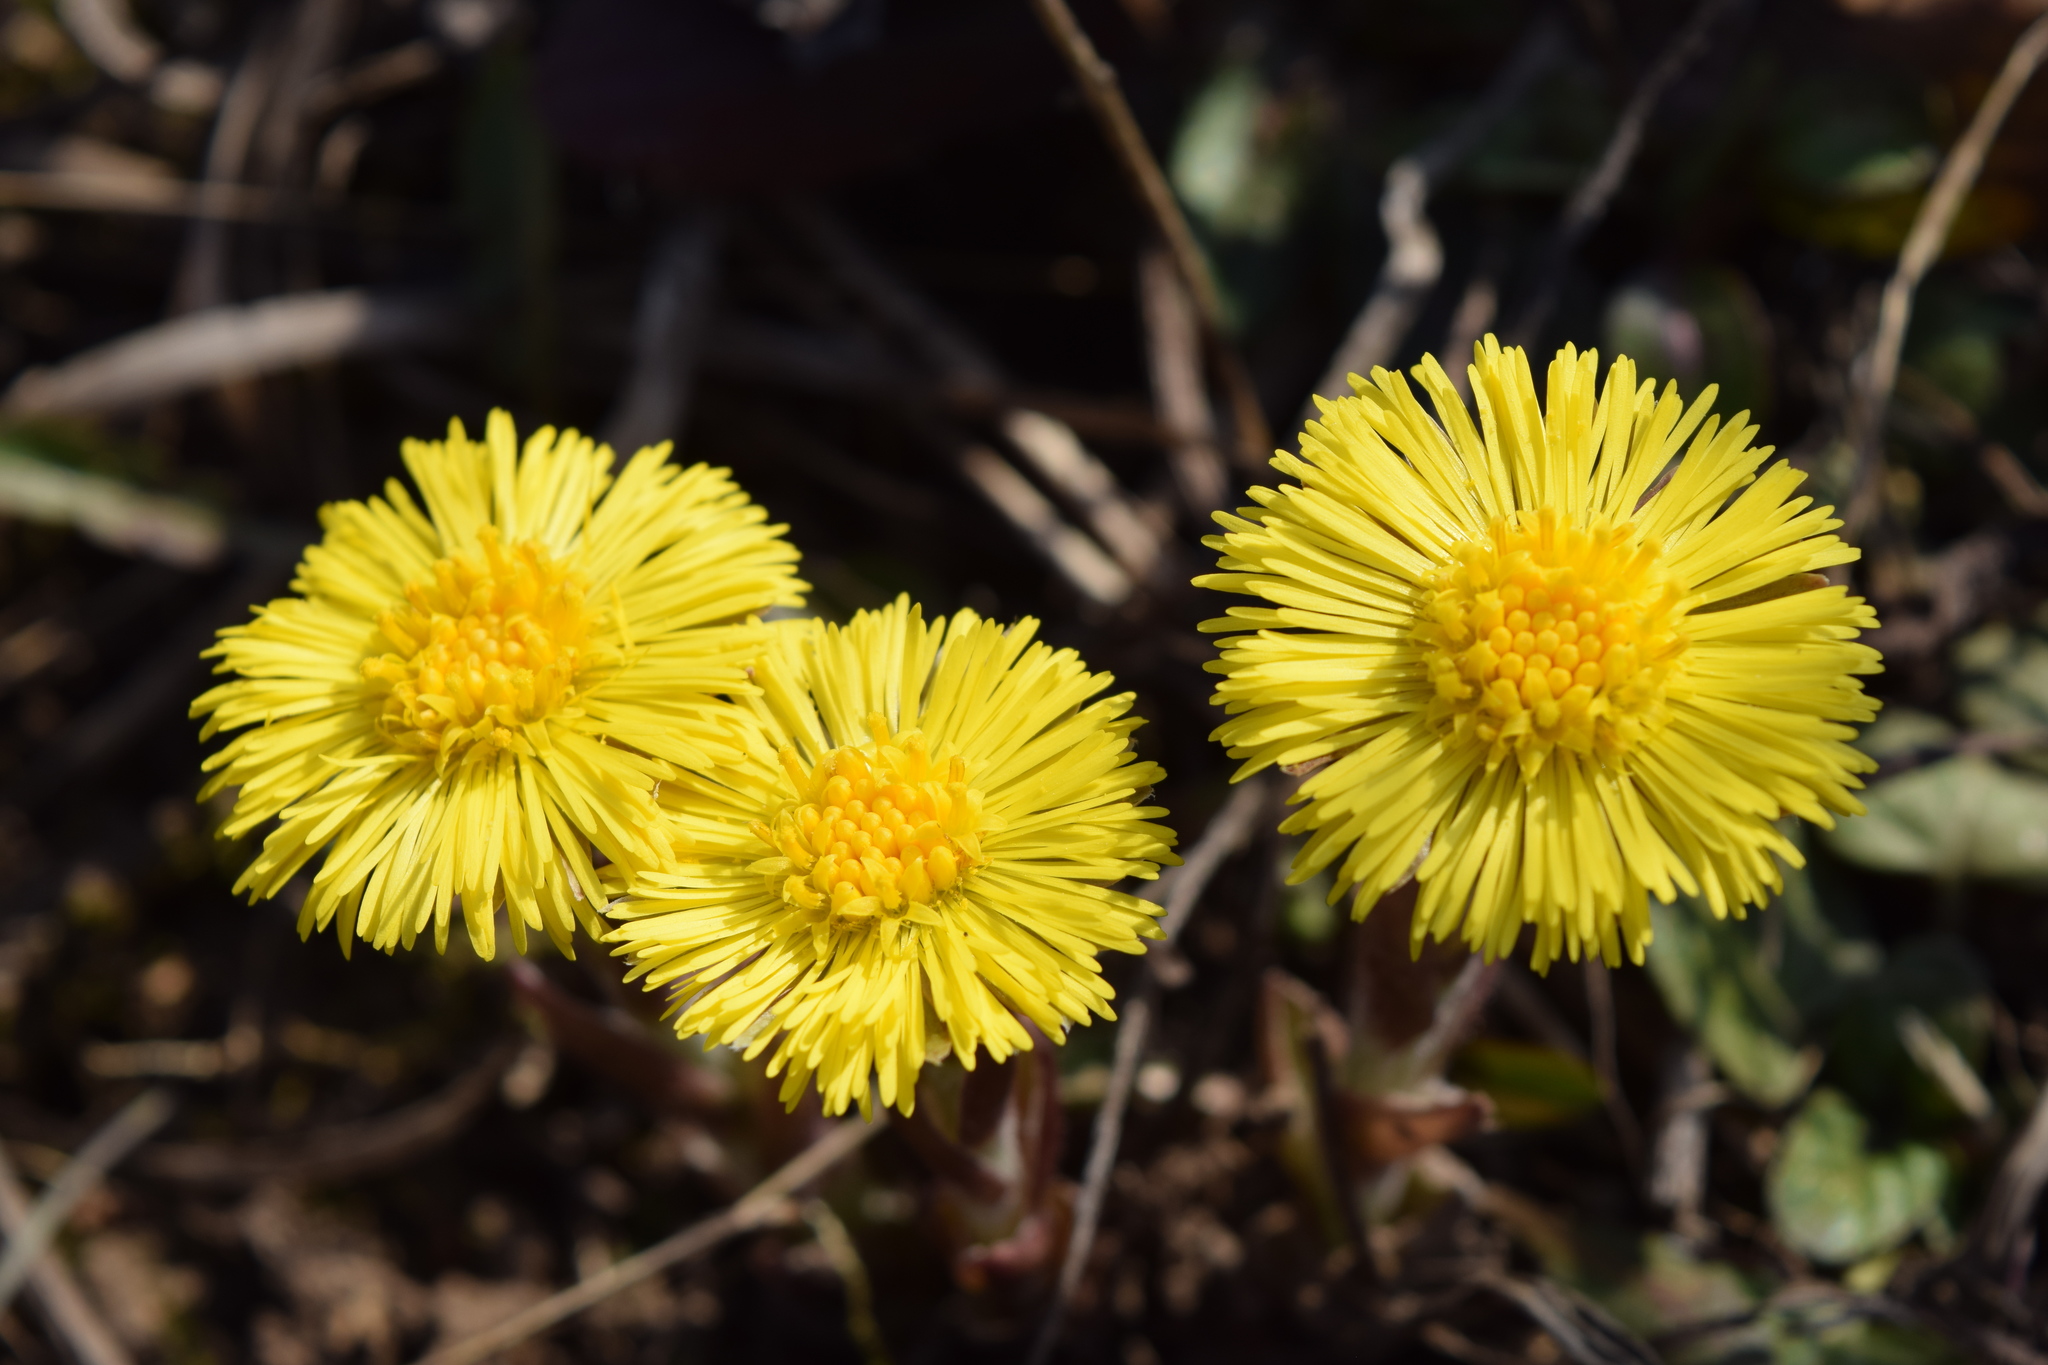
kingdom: Plantae
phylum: Tracheophyta
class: Magnoliopsida
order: Asterales
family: Asteraceae
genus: Tussilago
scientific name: Tussilago farfara
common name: Coltsfoot
